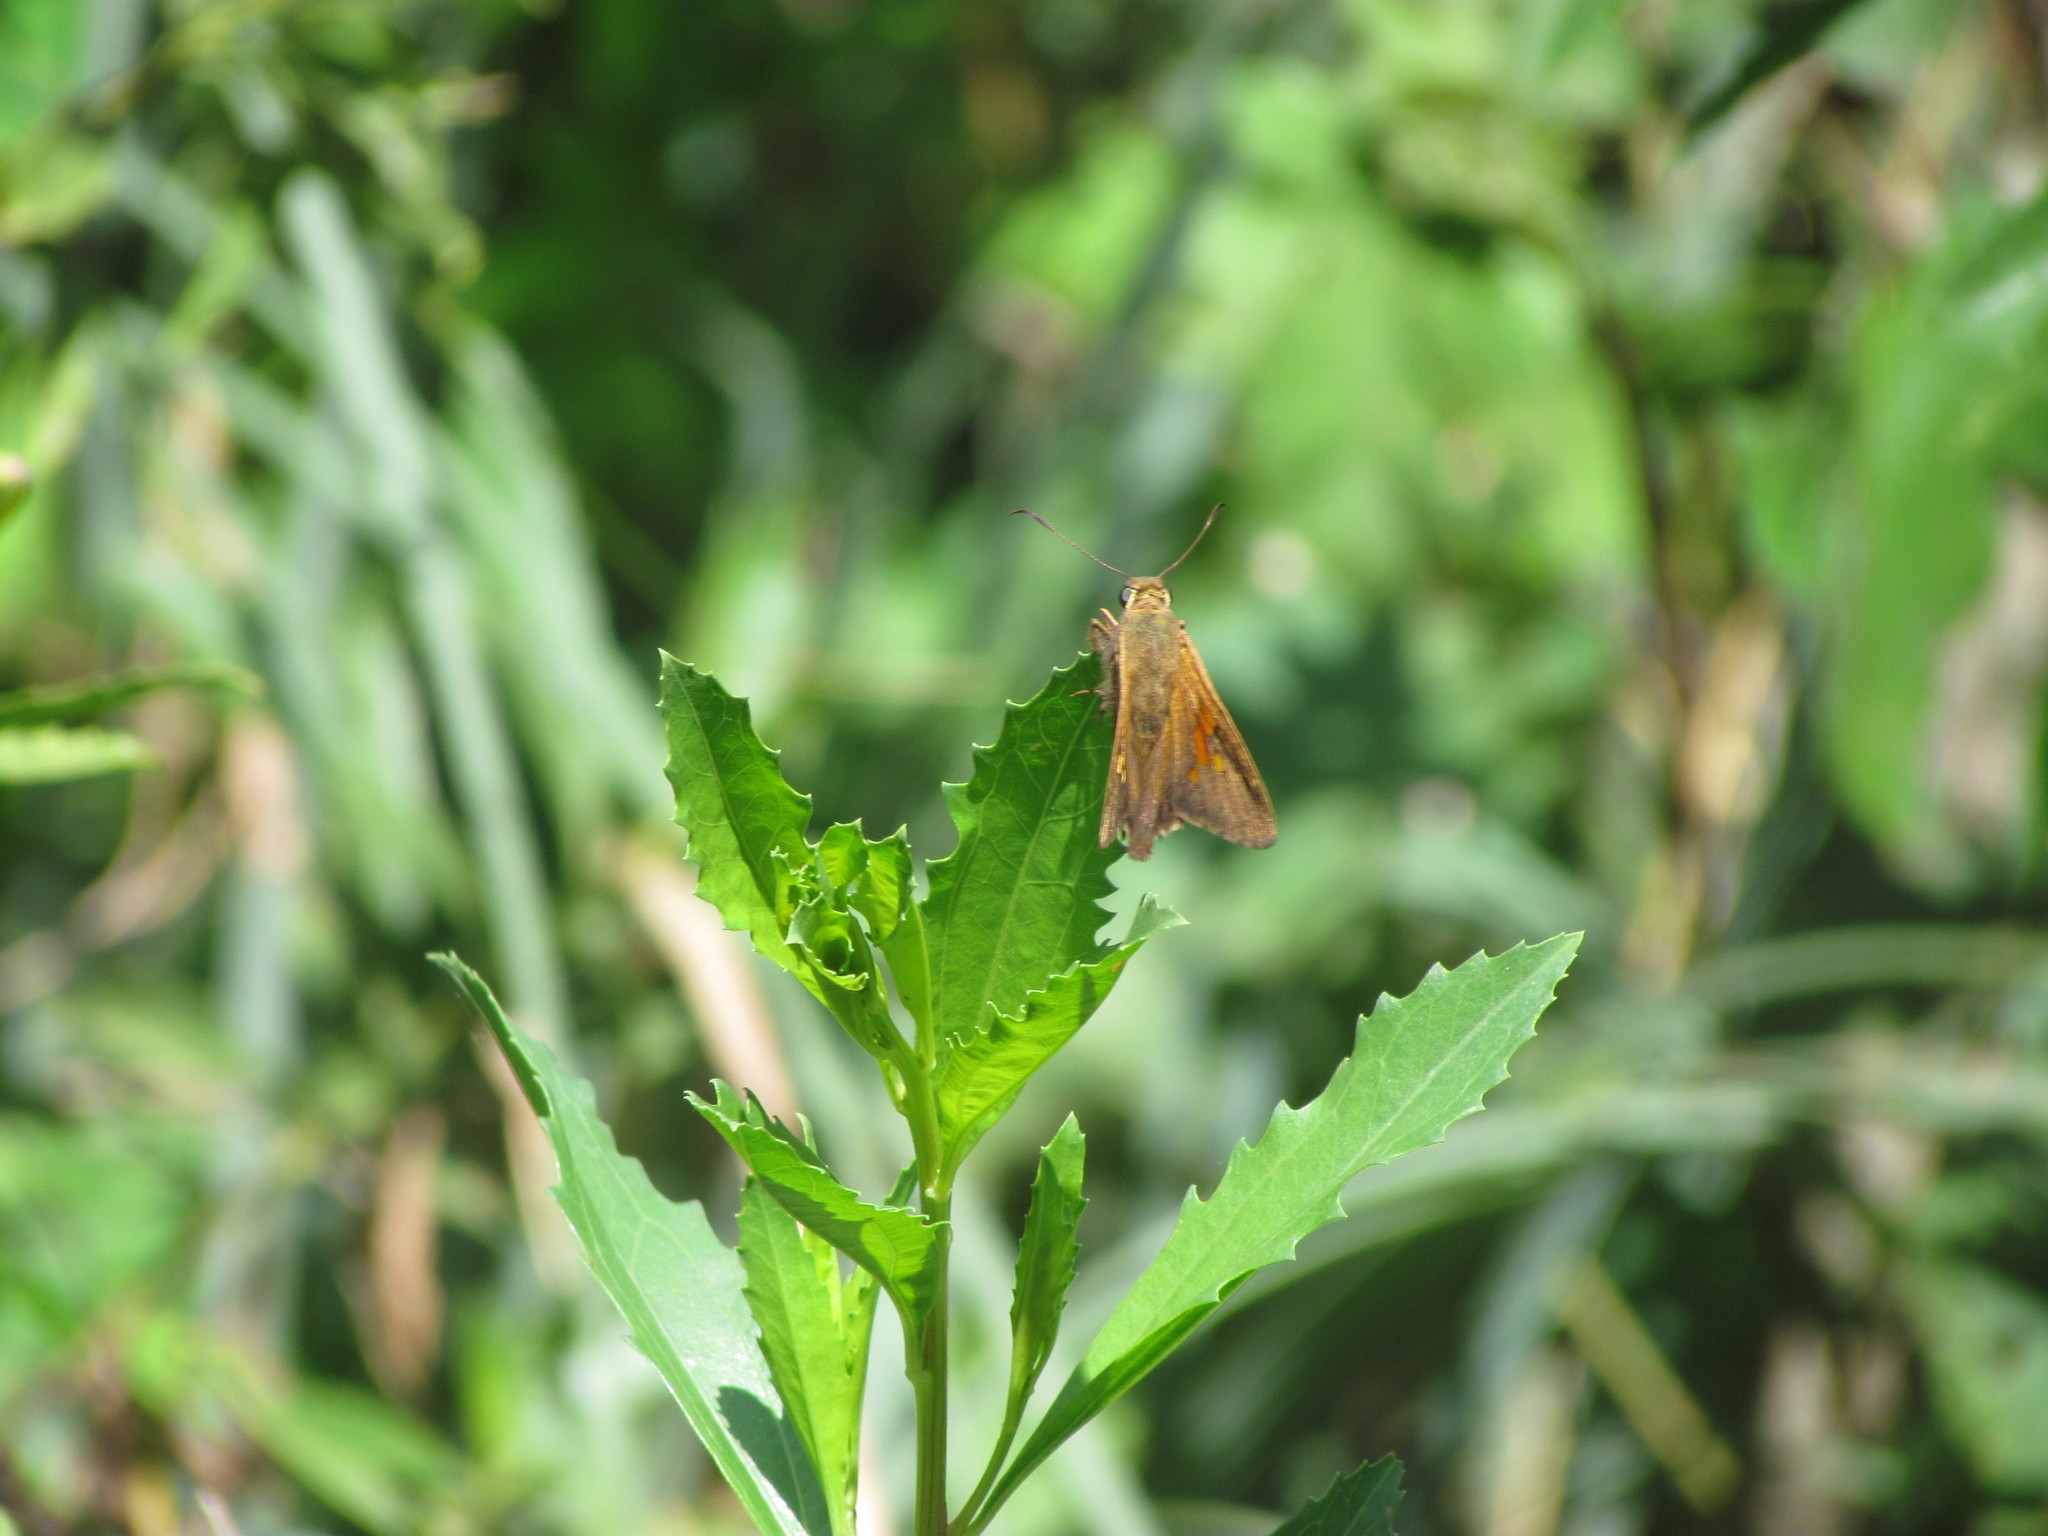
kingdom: Animalia
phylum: Arthropoda
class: Insecta
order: Lepidoptera
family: Hesperiidae
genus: Epargyreus
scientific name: Epargyreus tmolis
